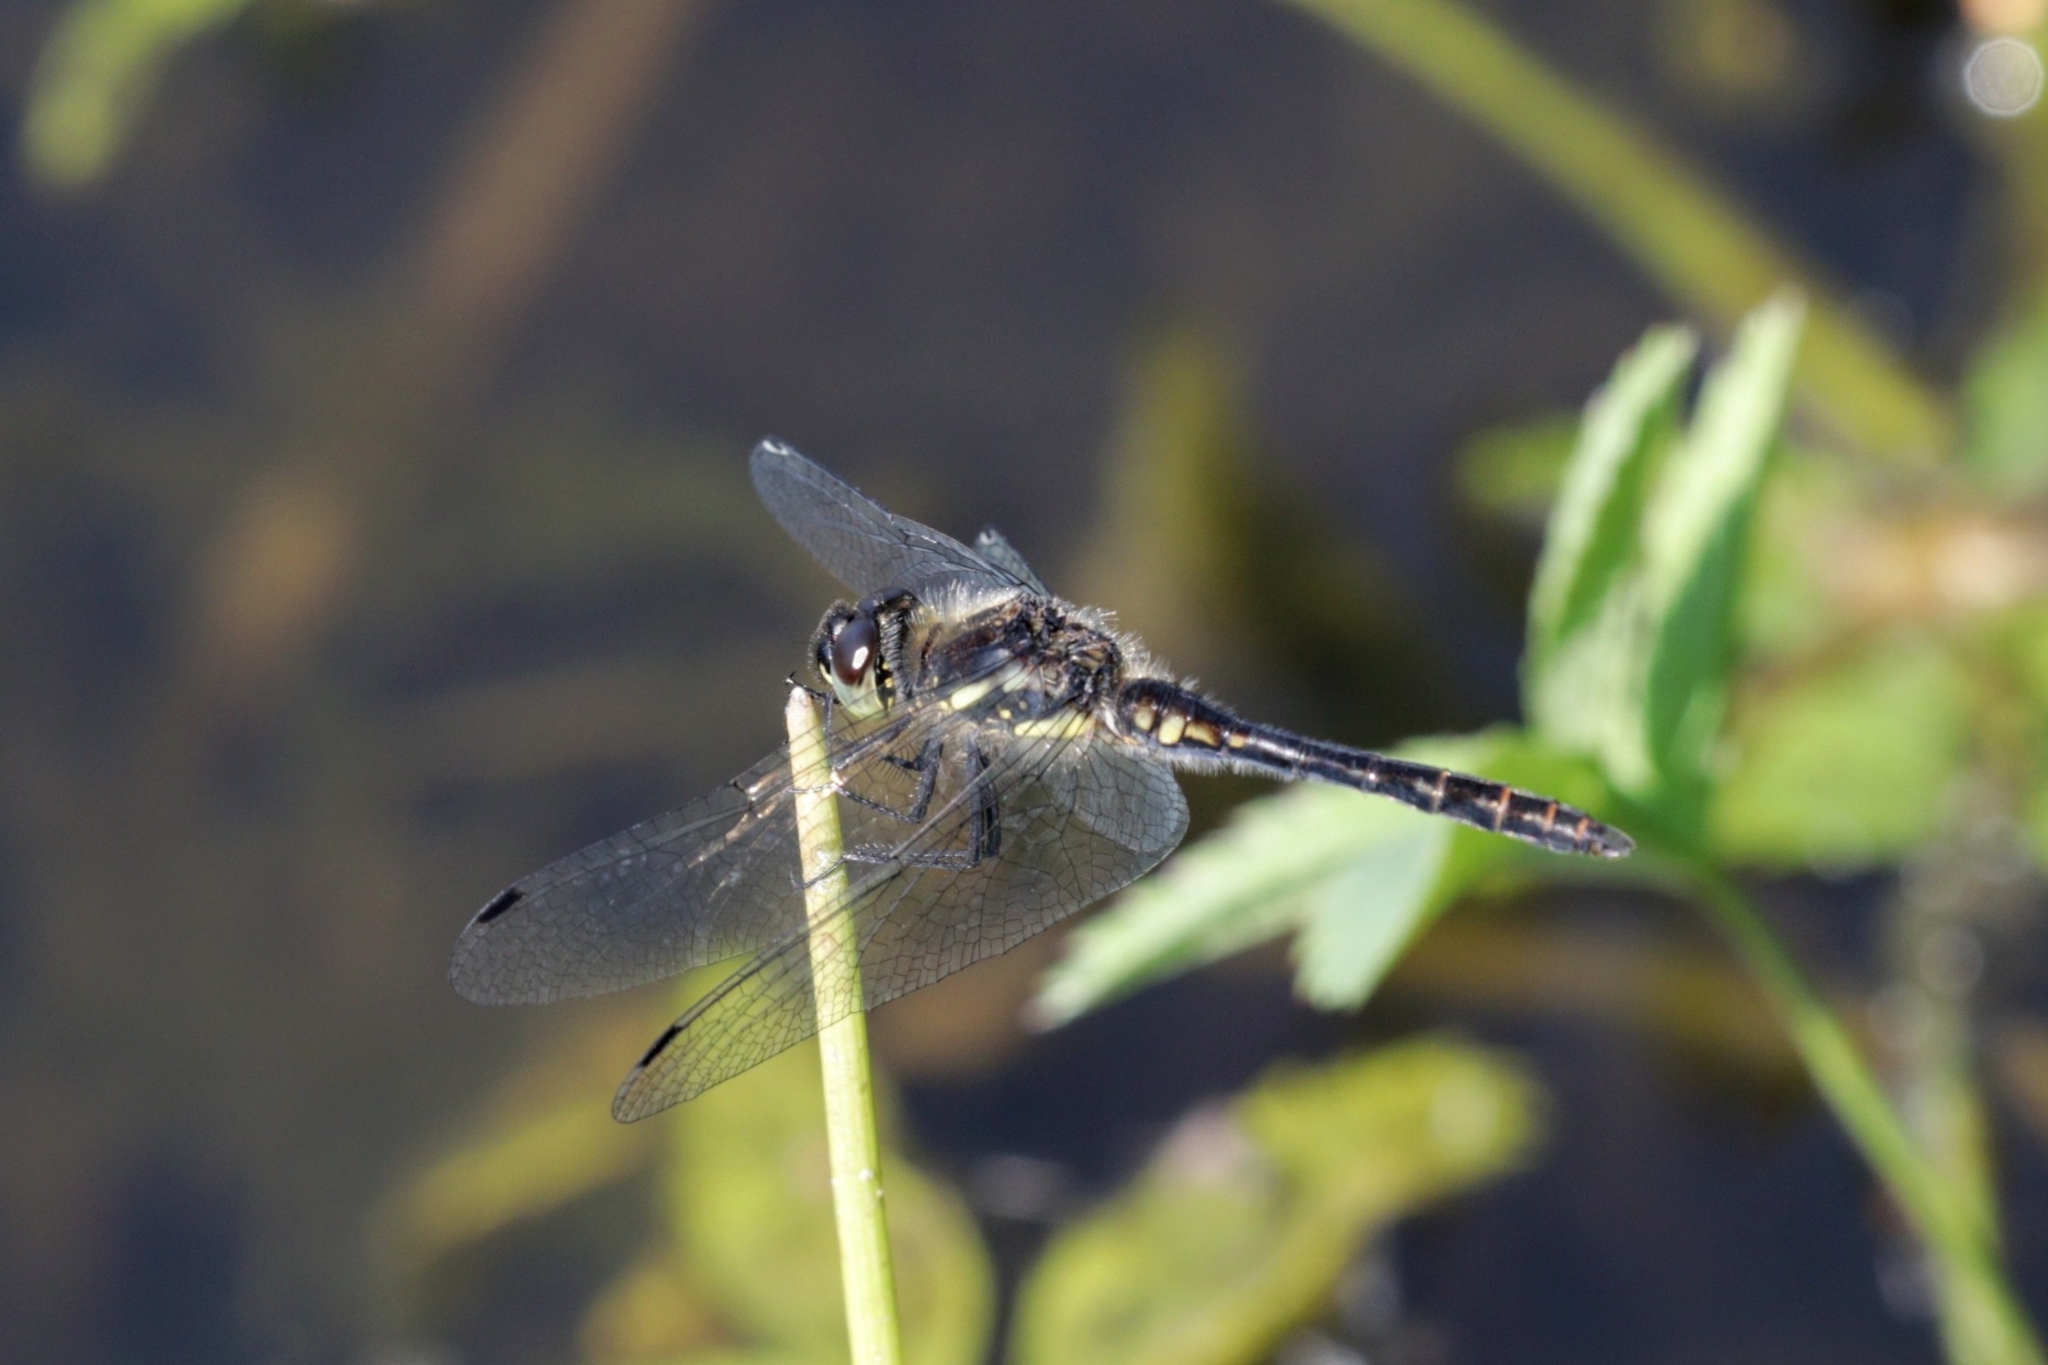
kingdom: Animalia
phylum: Arthropoda
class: Insecta
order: Odonata
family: Libellulidae
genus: Sympetrum
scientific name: Sympetrum danae
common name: Black darter
